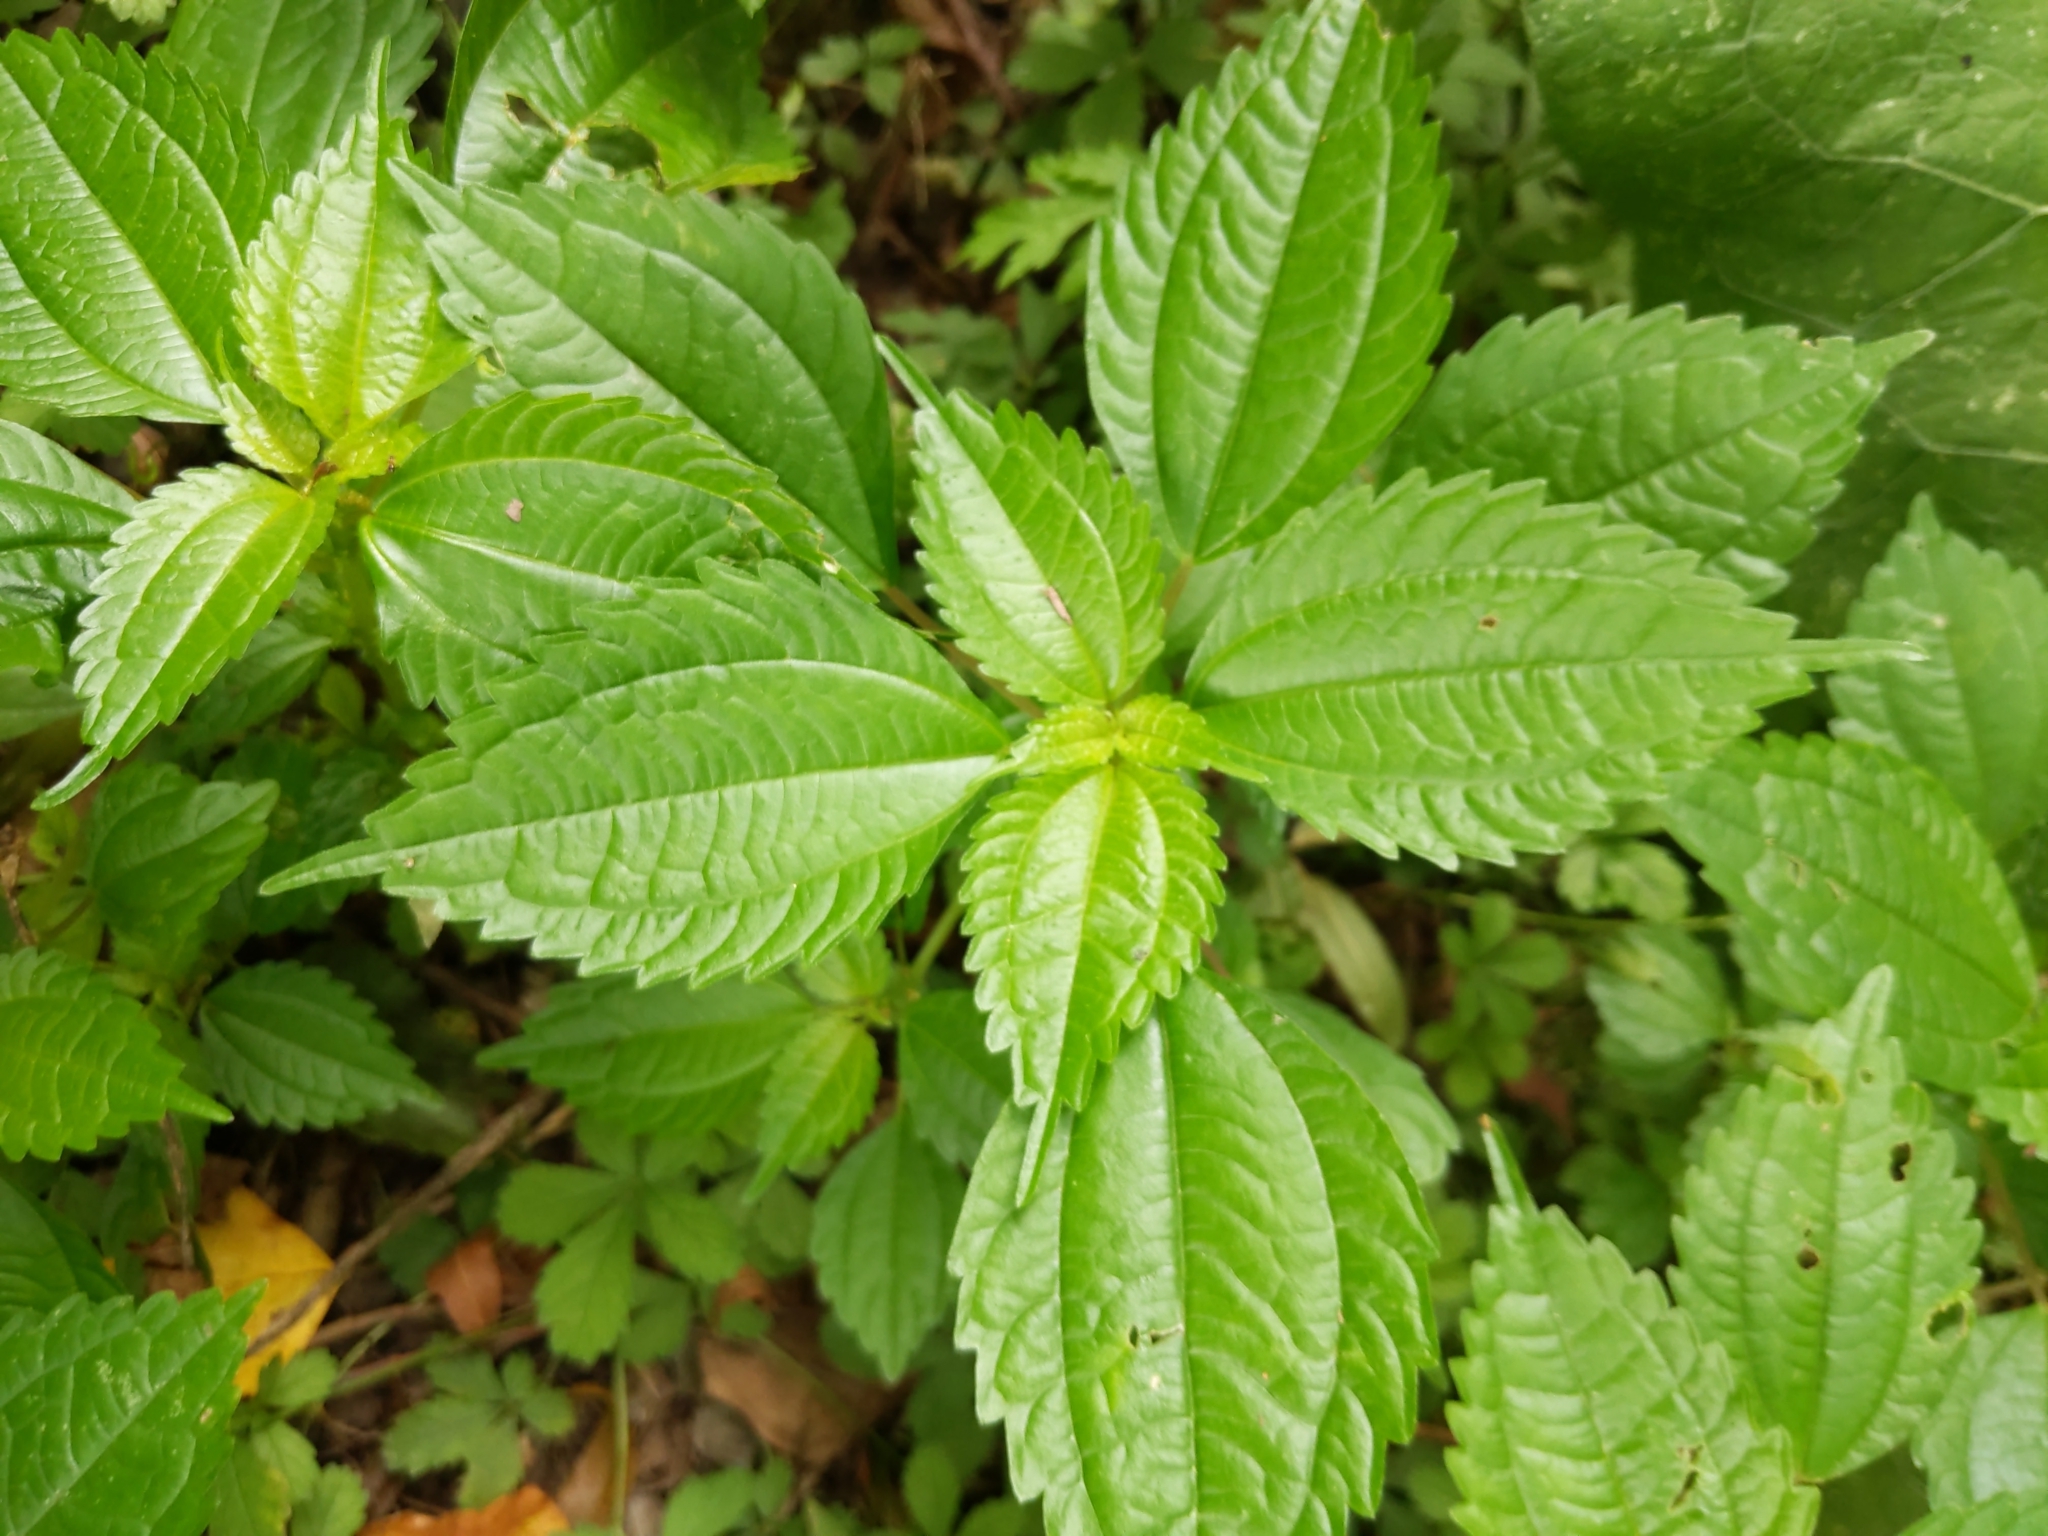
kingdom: Plantae
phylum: Tracheophyta
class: Magnoliopsida
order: Rosales
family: Urticaceae
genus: Pilea
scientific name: Pilea pumila
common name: Clearweed
